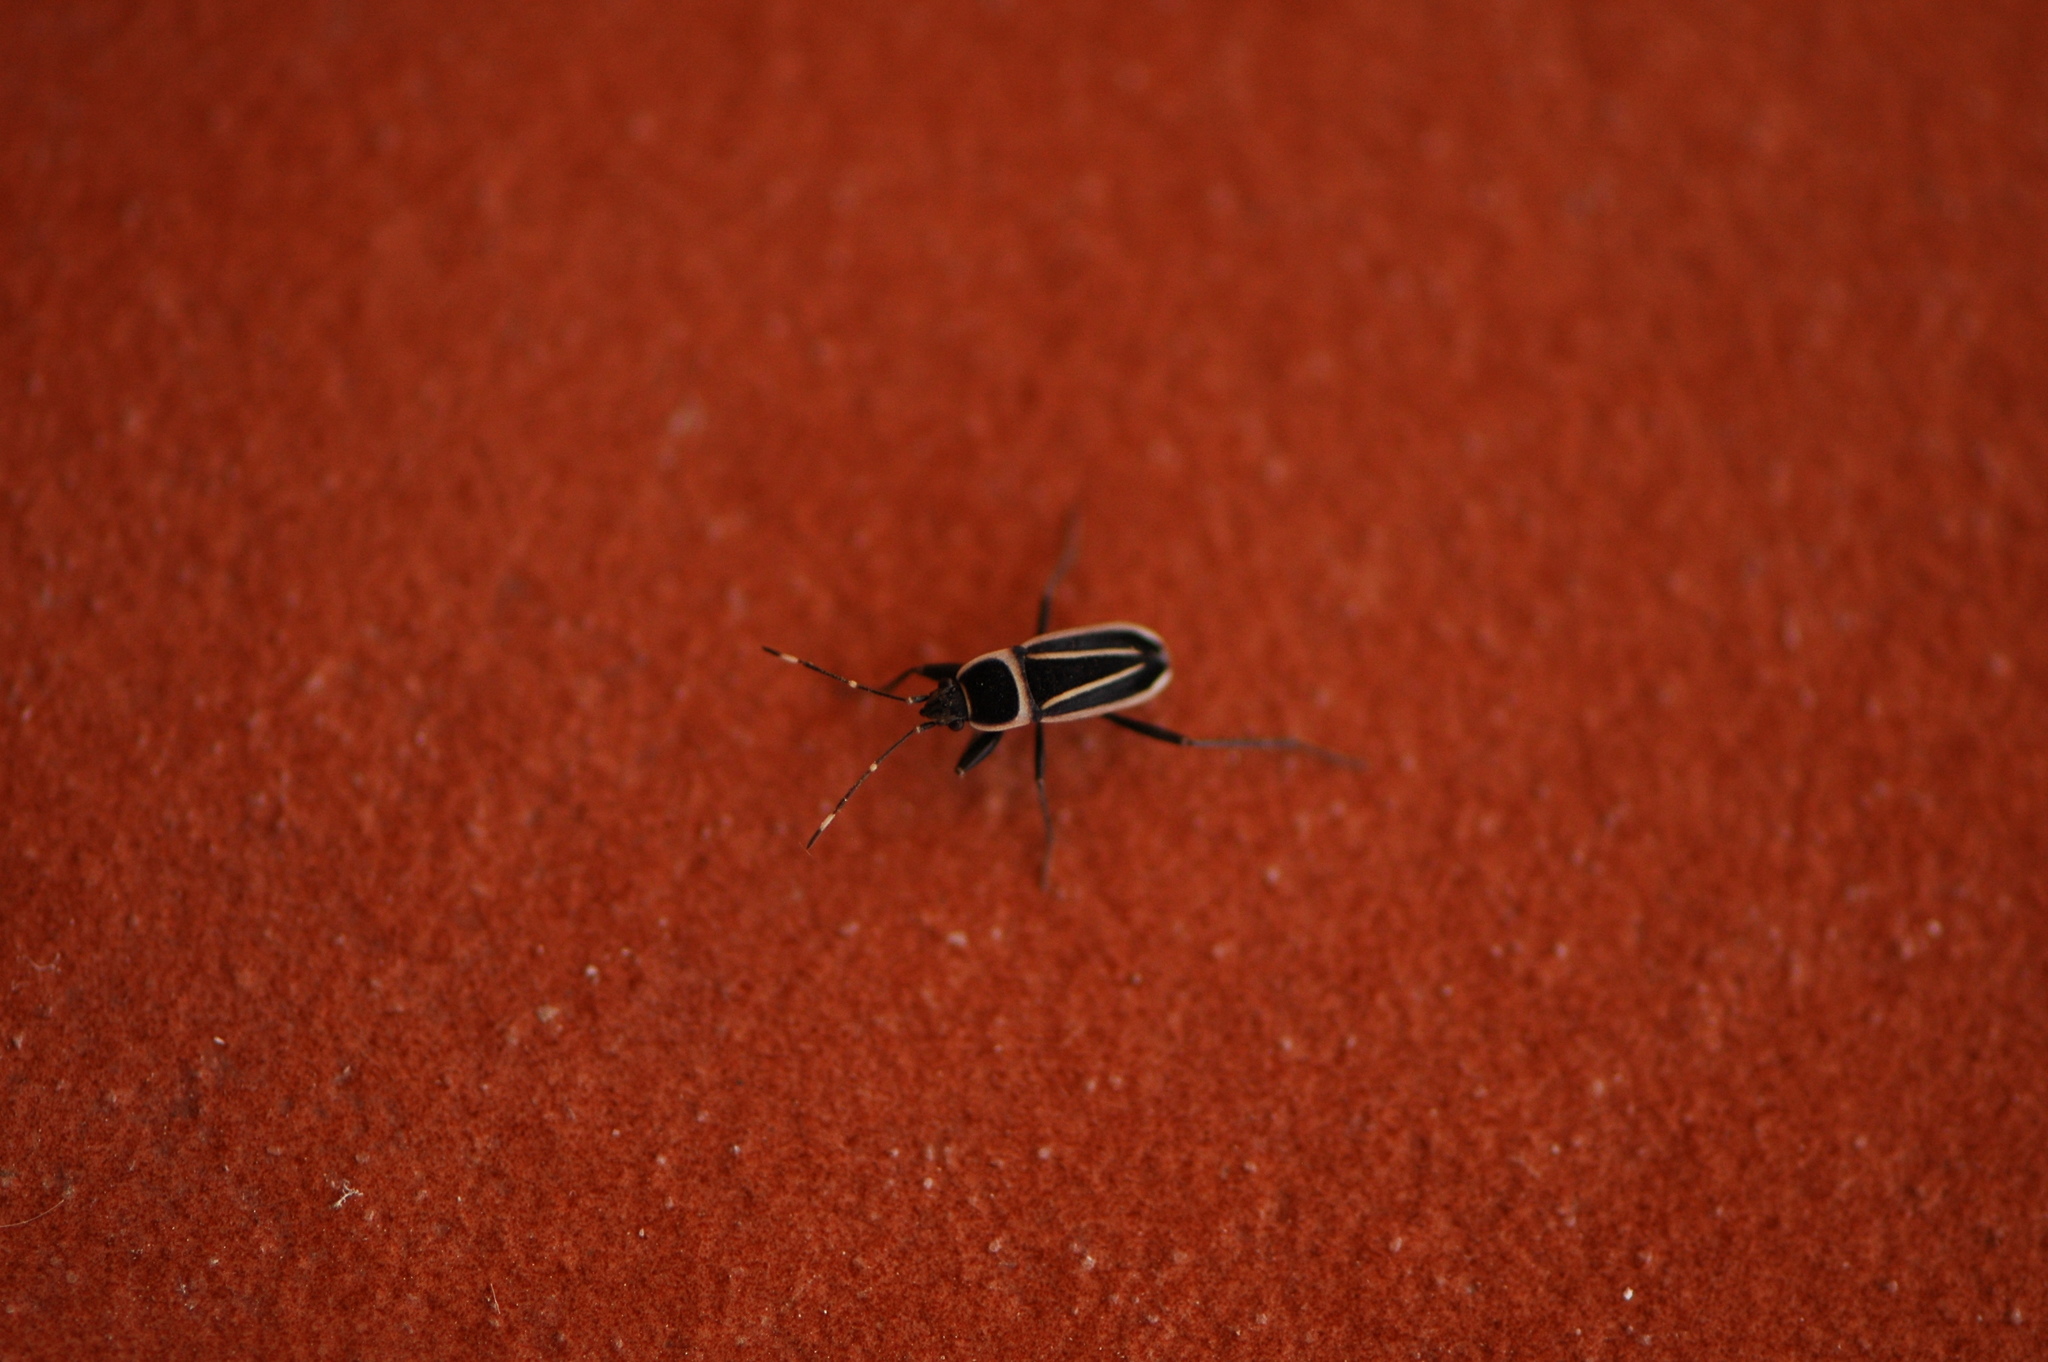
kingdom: Animalia
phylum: Arthropoda
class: Insecta
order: Hemiptera
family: Rhyparochromidae
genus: Ragliodes
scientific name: Ragliodes delineatus
